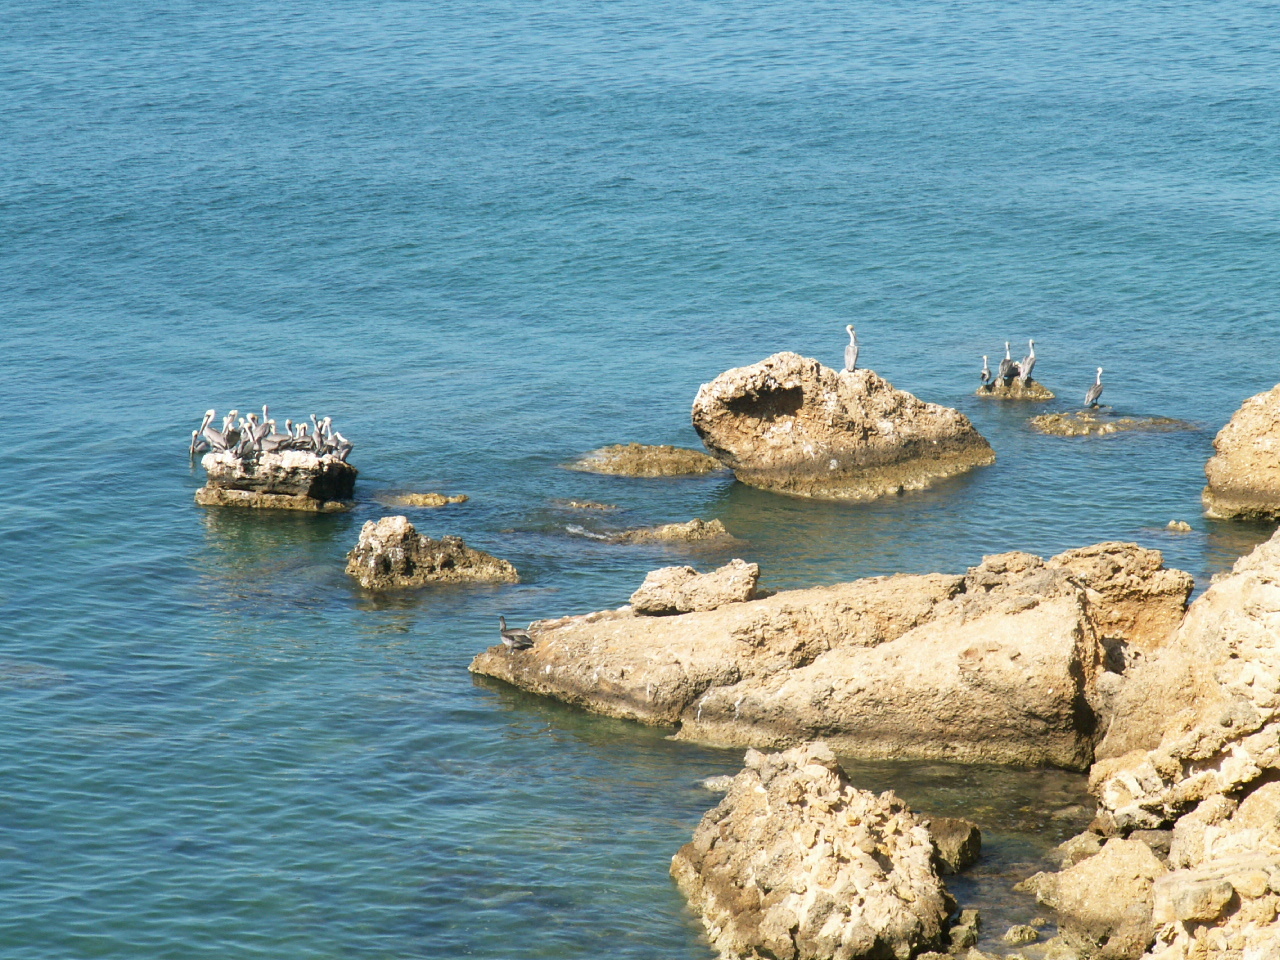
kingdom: Animalia
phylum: Chordata
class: Aves
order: Pelecaniformes
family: Pelecanidae
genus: Pelecanus
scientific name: Pelecanus occidentalis
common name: Brown pelican
